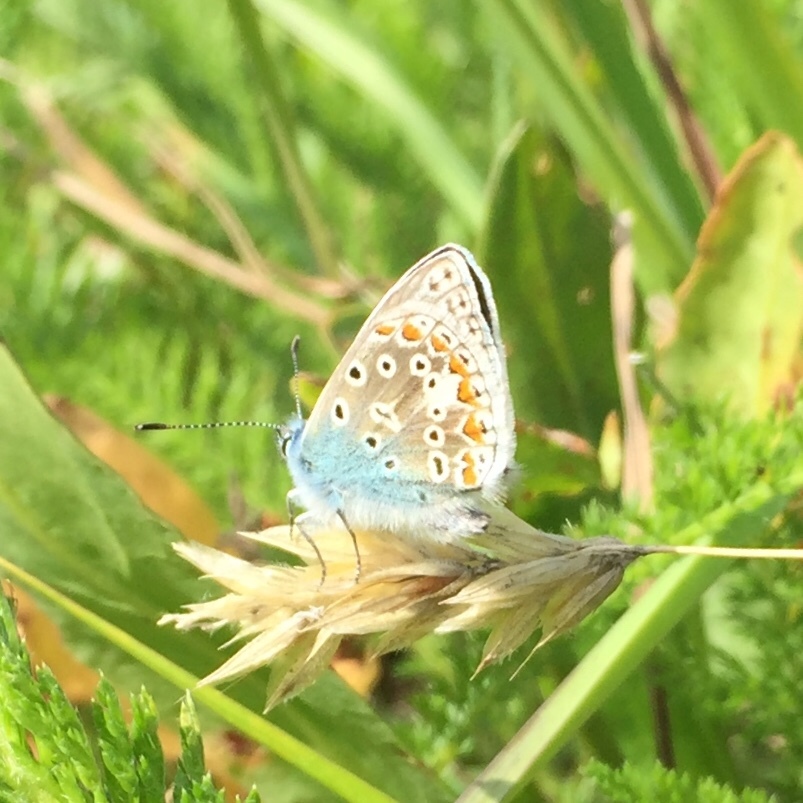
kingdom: Animalia
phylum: Arthropoda
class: Insecta
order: Lepidoptera
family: Lycaenidae
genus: Polyommatus
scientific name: Polyommatus icarus
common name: Common blue
